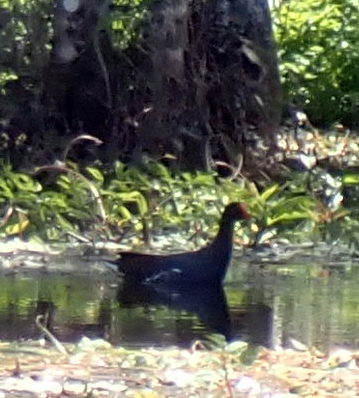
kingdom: Animalia
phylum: Chordata
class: Aves
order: Gruiformes
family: Rallidae
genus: Gallinula
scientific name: Gallinula chloropus
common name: Common moorhen
